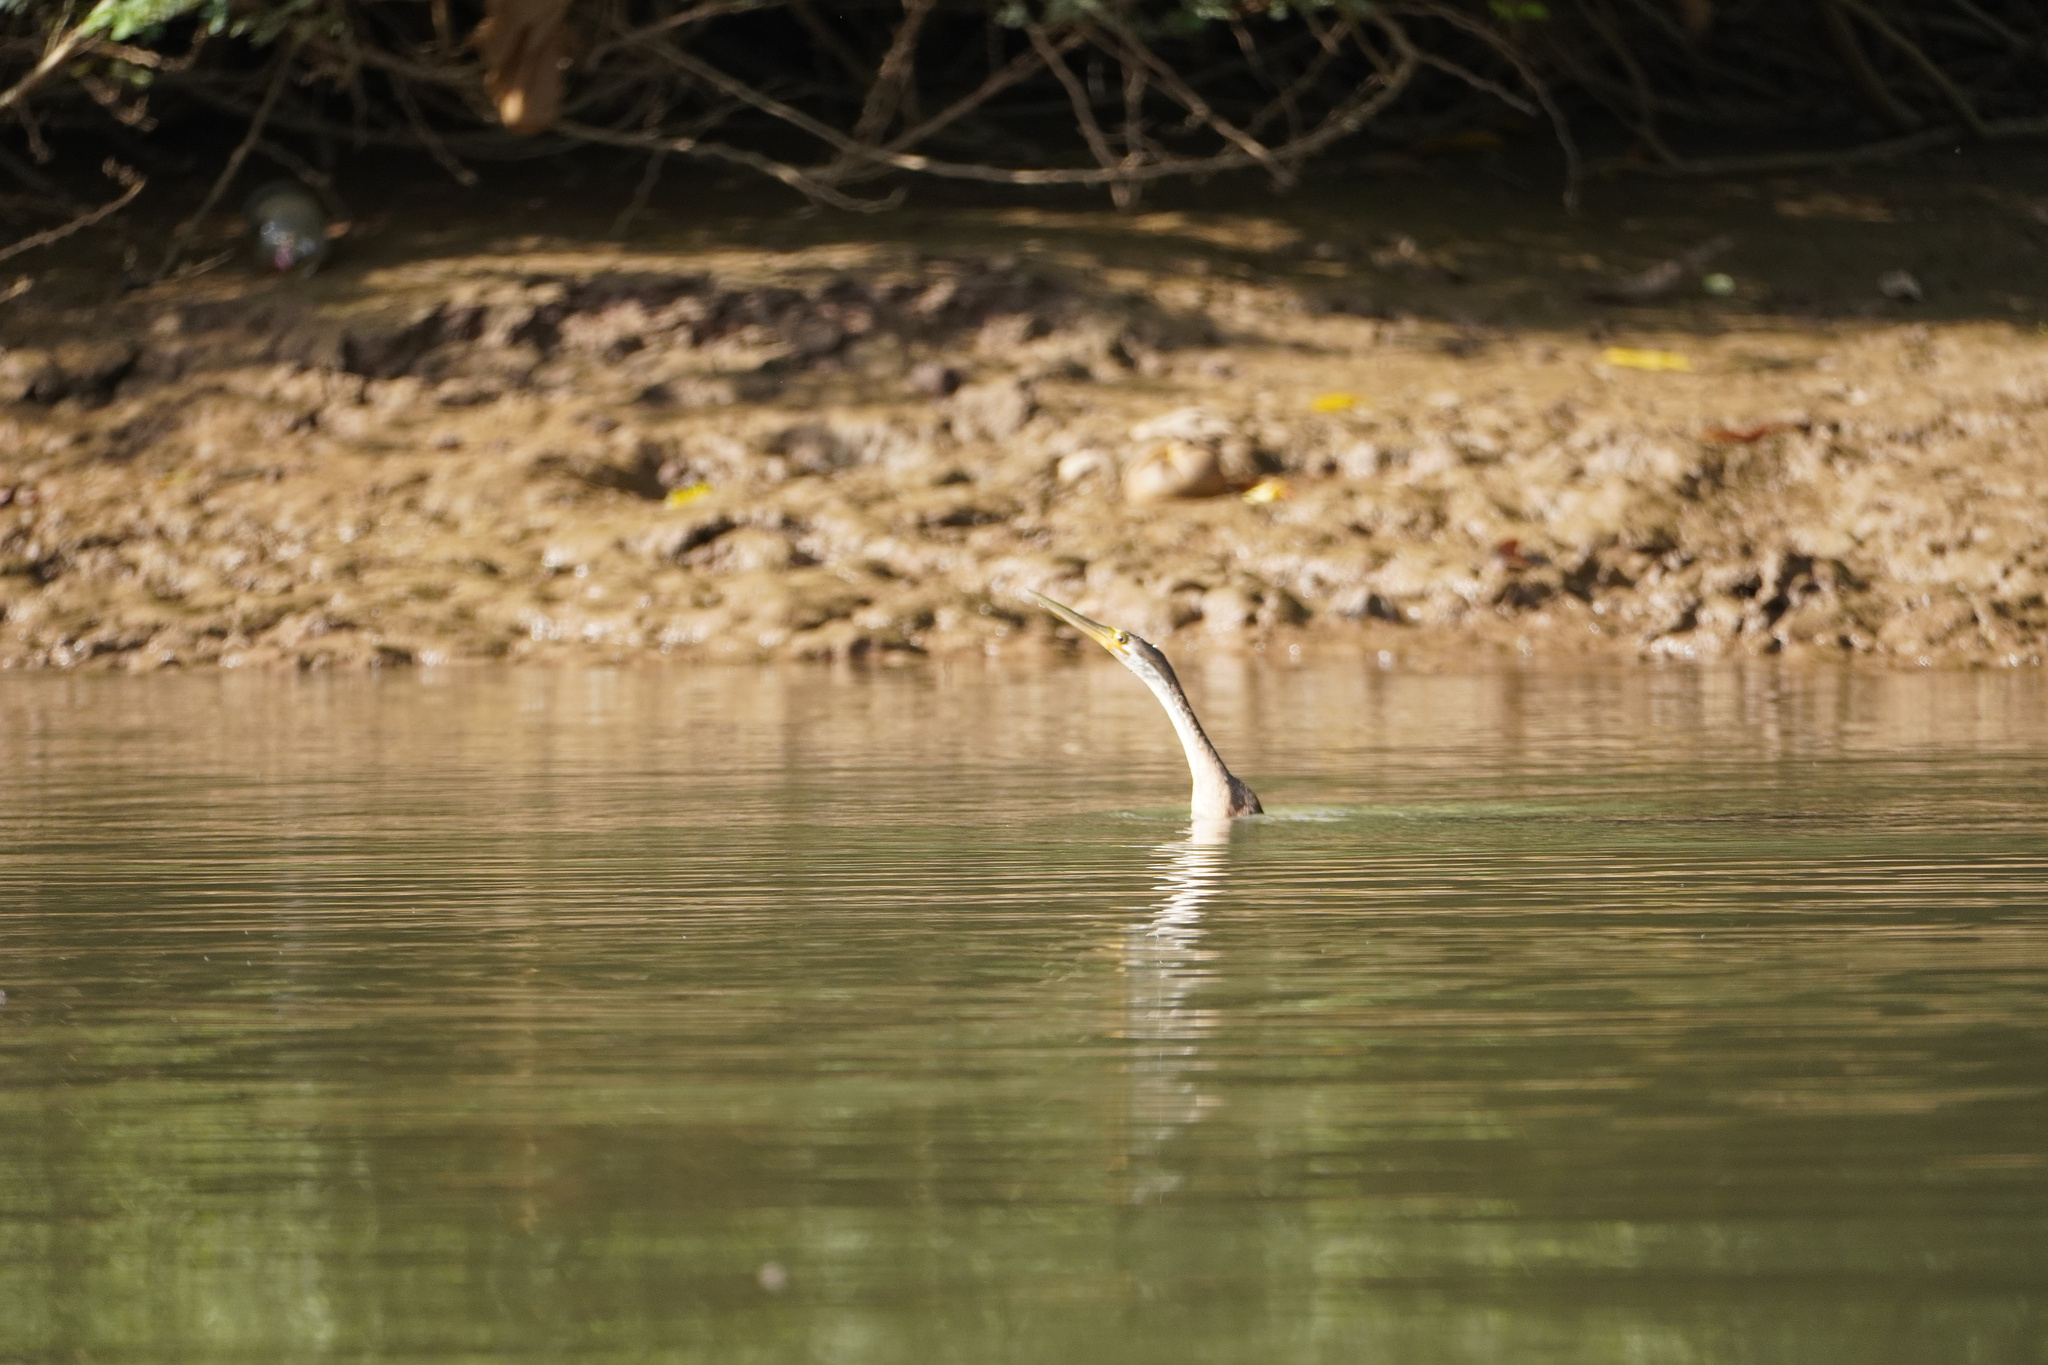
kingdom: Animalia
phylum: Chordata
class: Aves
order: Suliformes
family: Anhingidae
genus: Anhinga
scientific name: Anhinga rufa
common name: African darter
